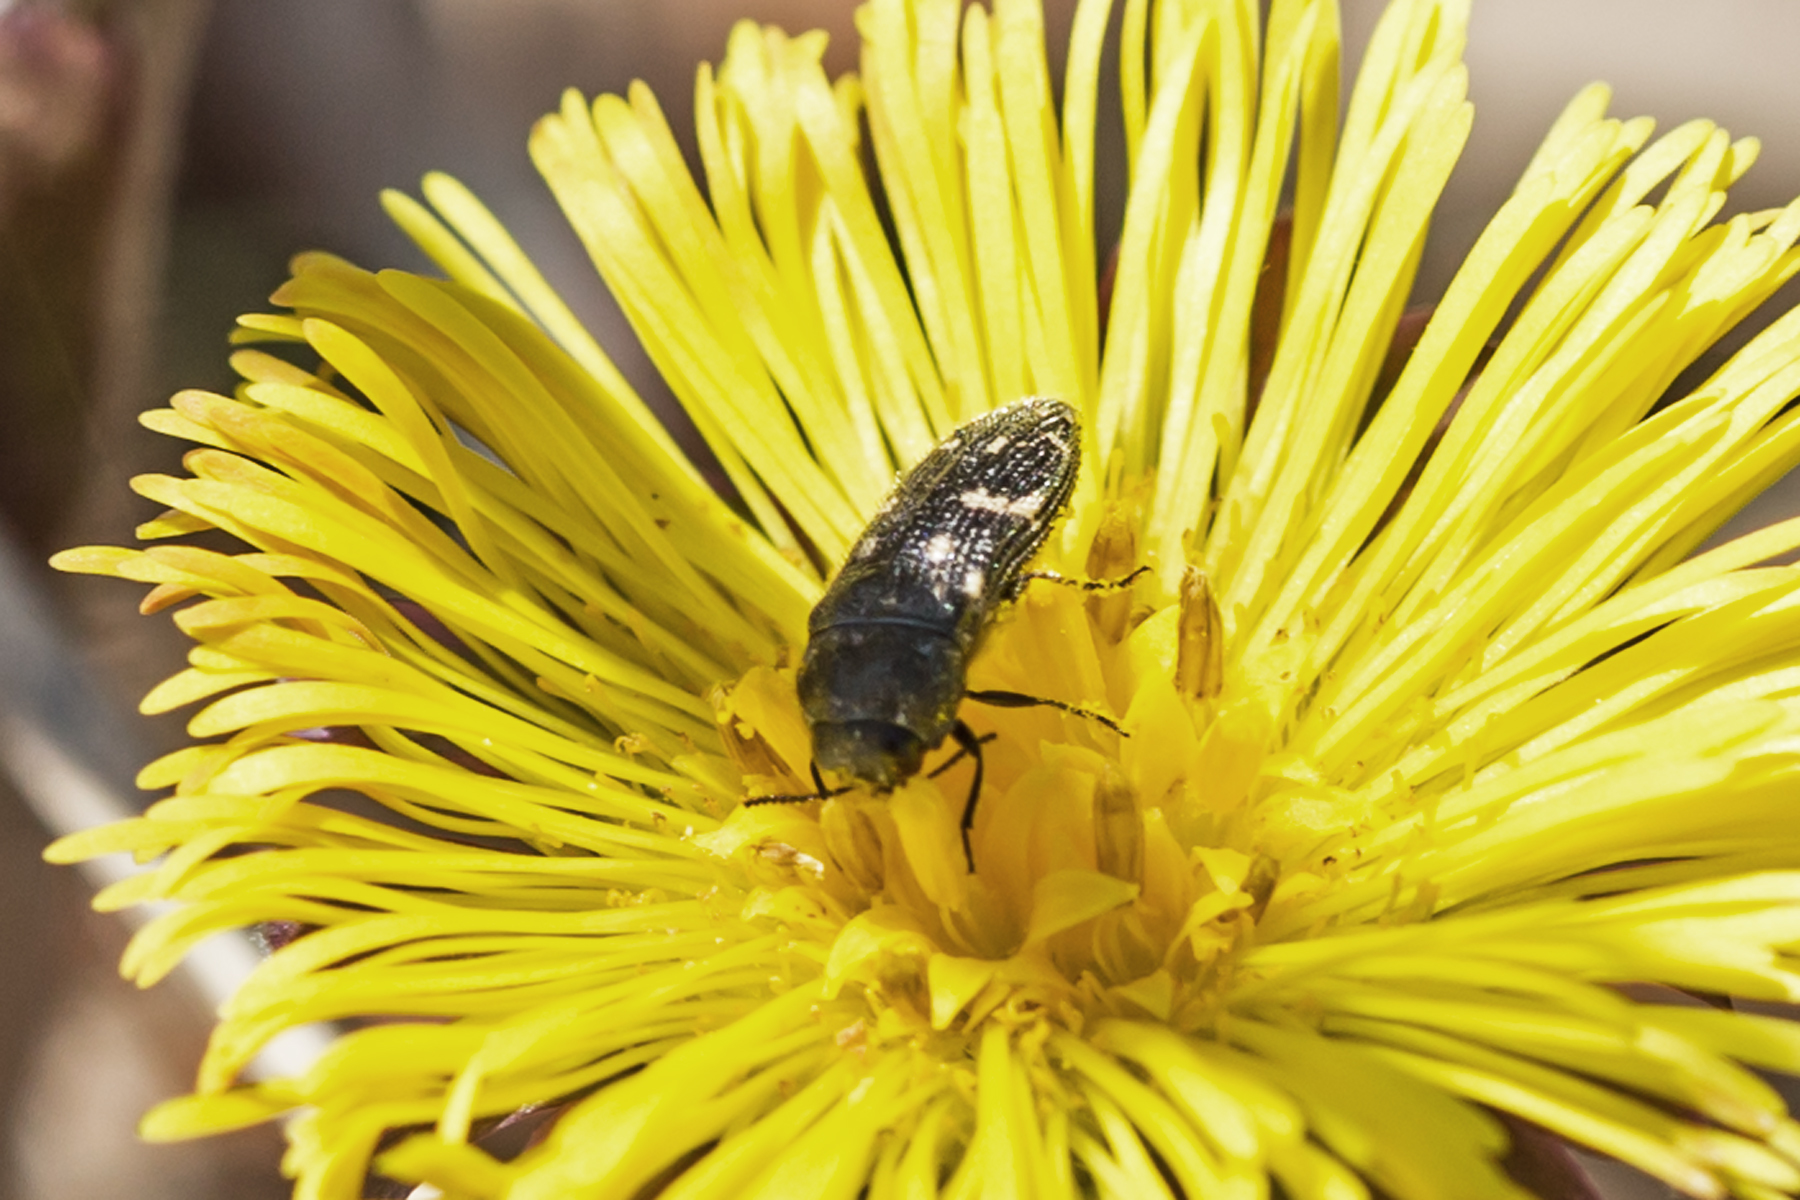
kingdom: Animalia
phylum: Arthropoda
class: Insecta
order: Coleoptera
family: Buprestidae
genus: Acmaeodera
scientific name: Acmaeodera tubulus
